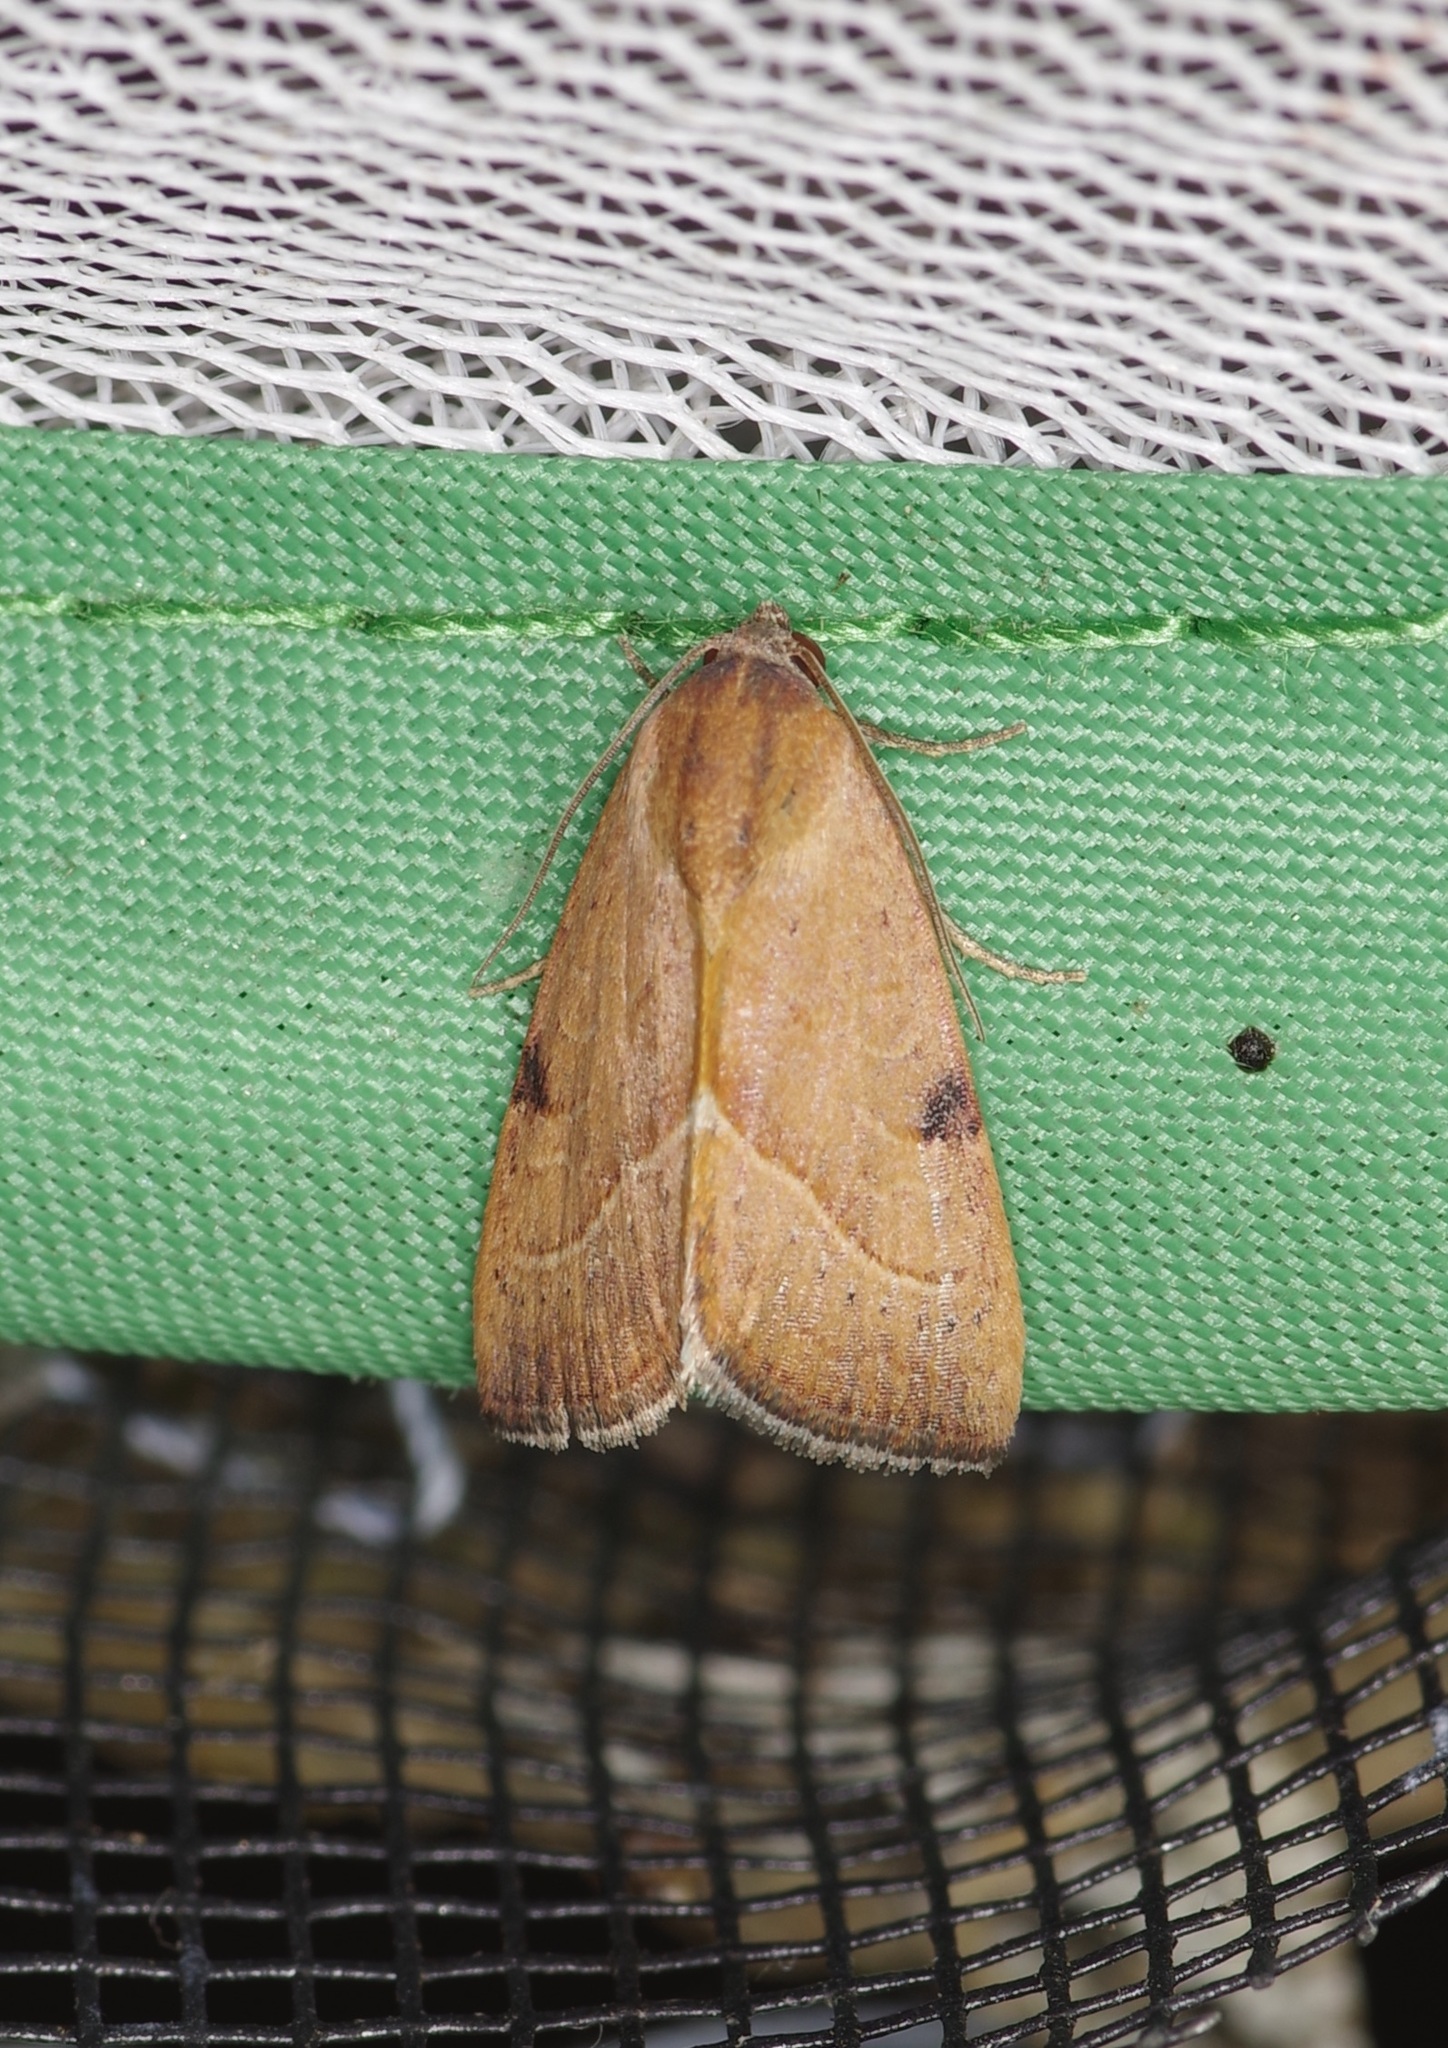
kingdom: Animalia
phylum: Arthropoda
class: Insecta
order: Lepidoptera
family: Noctuidae
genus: Galgula
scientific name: Galgula partita
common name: Wedgeling
